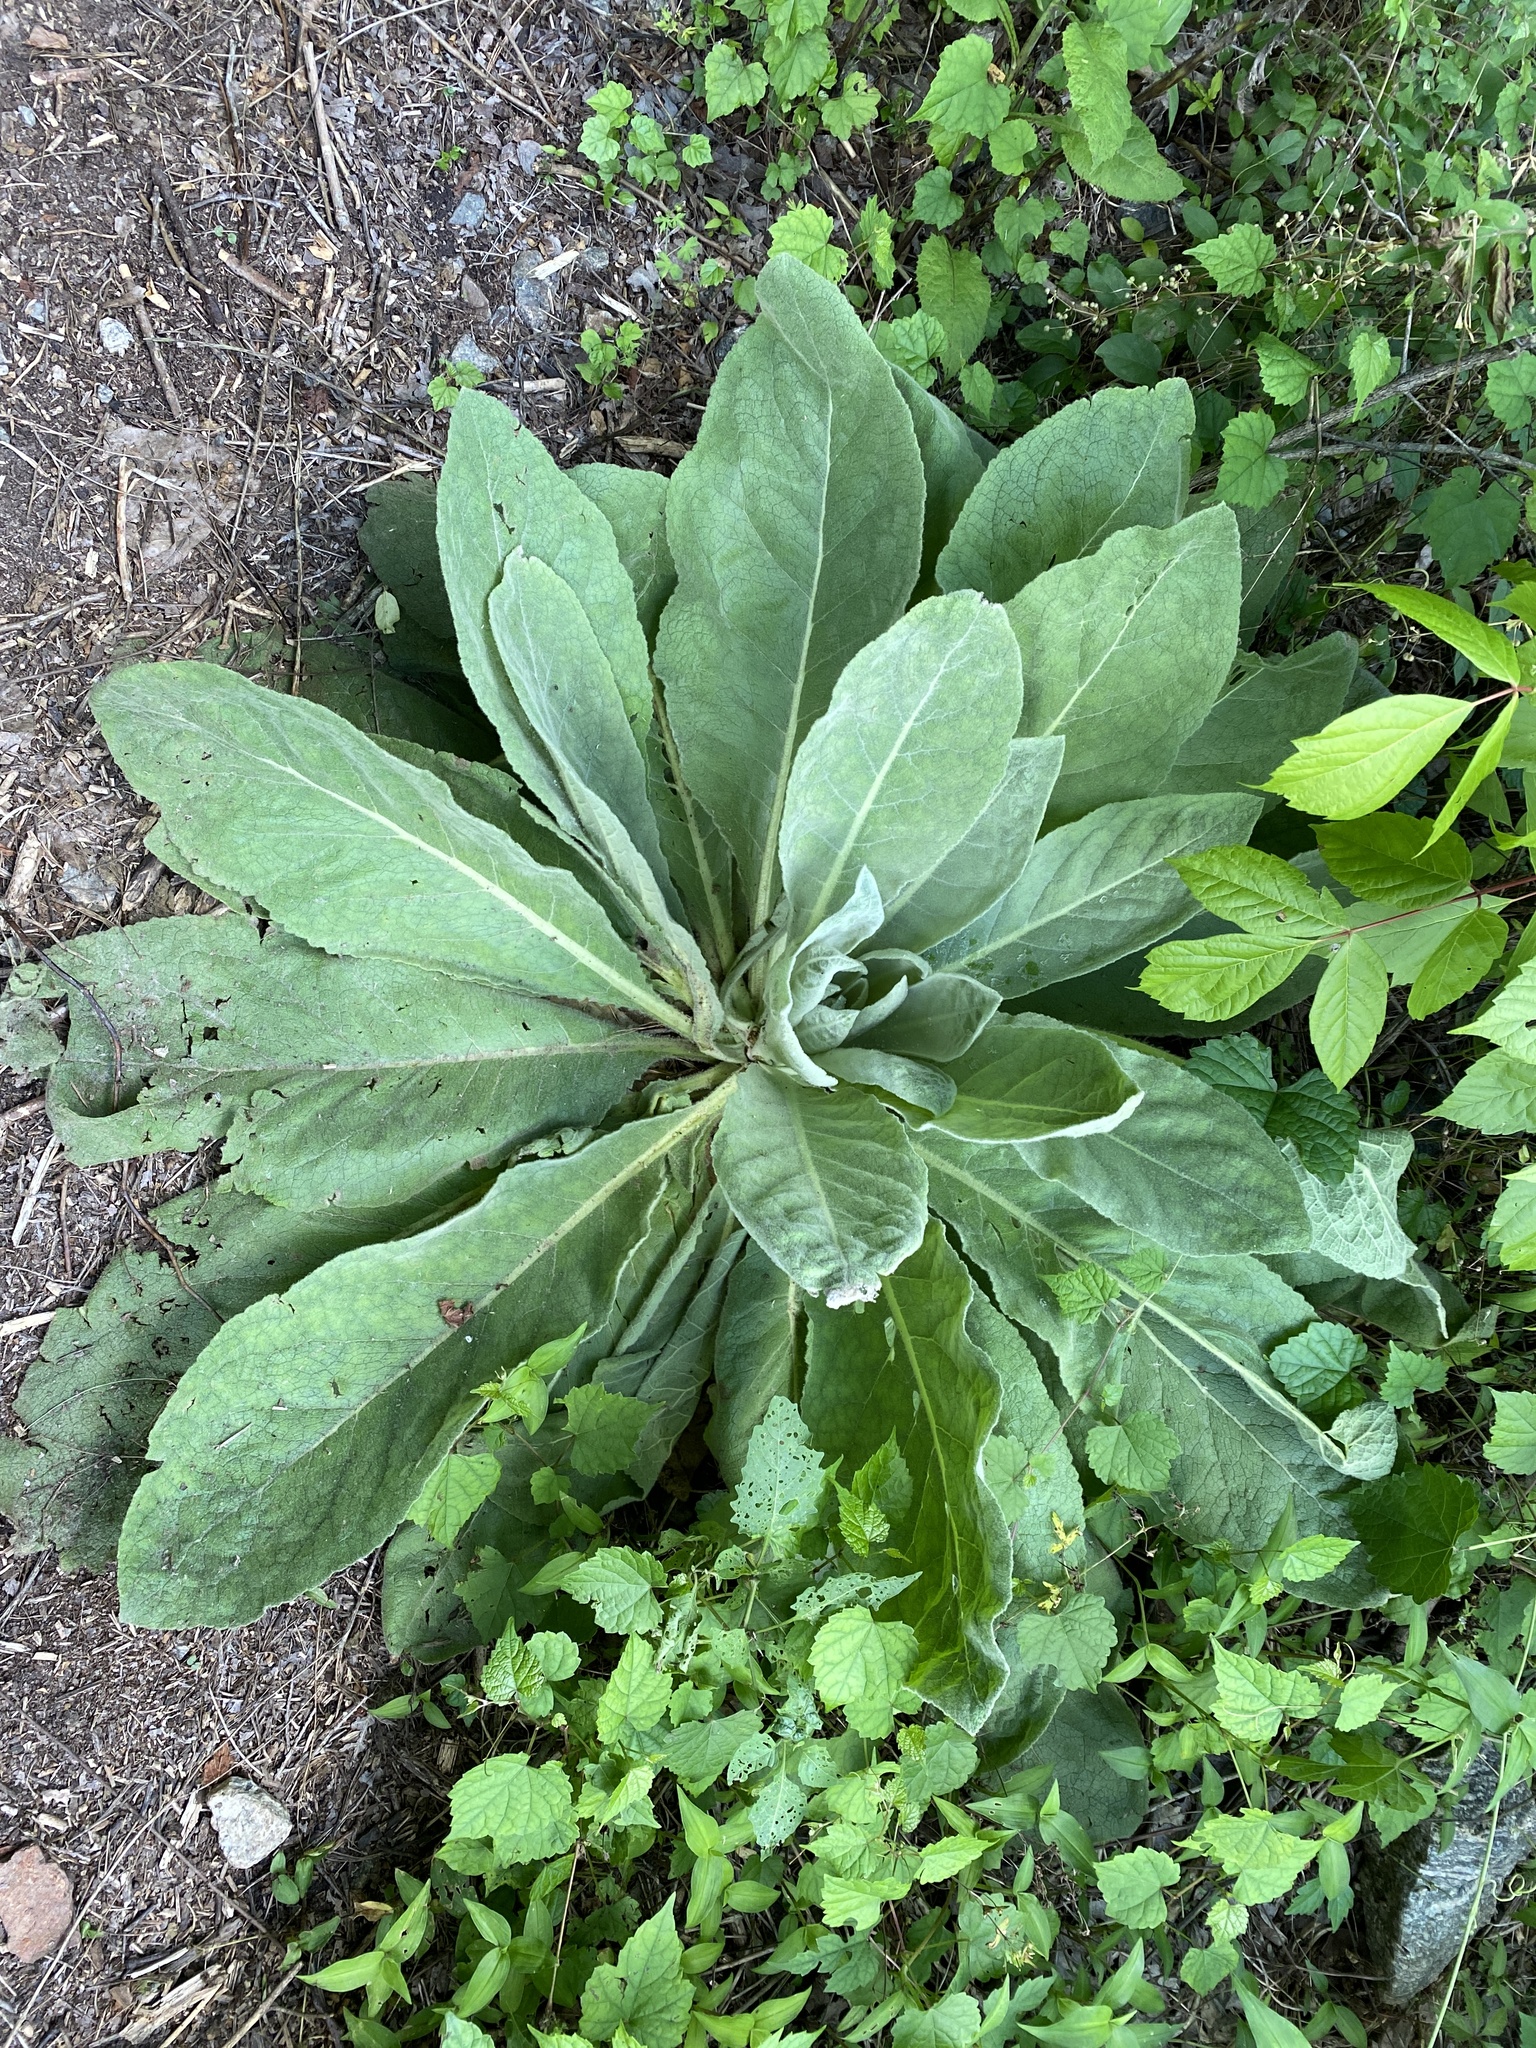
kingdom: Plantae
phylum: Tracheophyta
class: Magnoliopsida
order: Lamiales
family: Scrophulariaceae
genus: Verbascum
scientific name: Verbascum thapsus
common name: Common mullein
